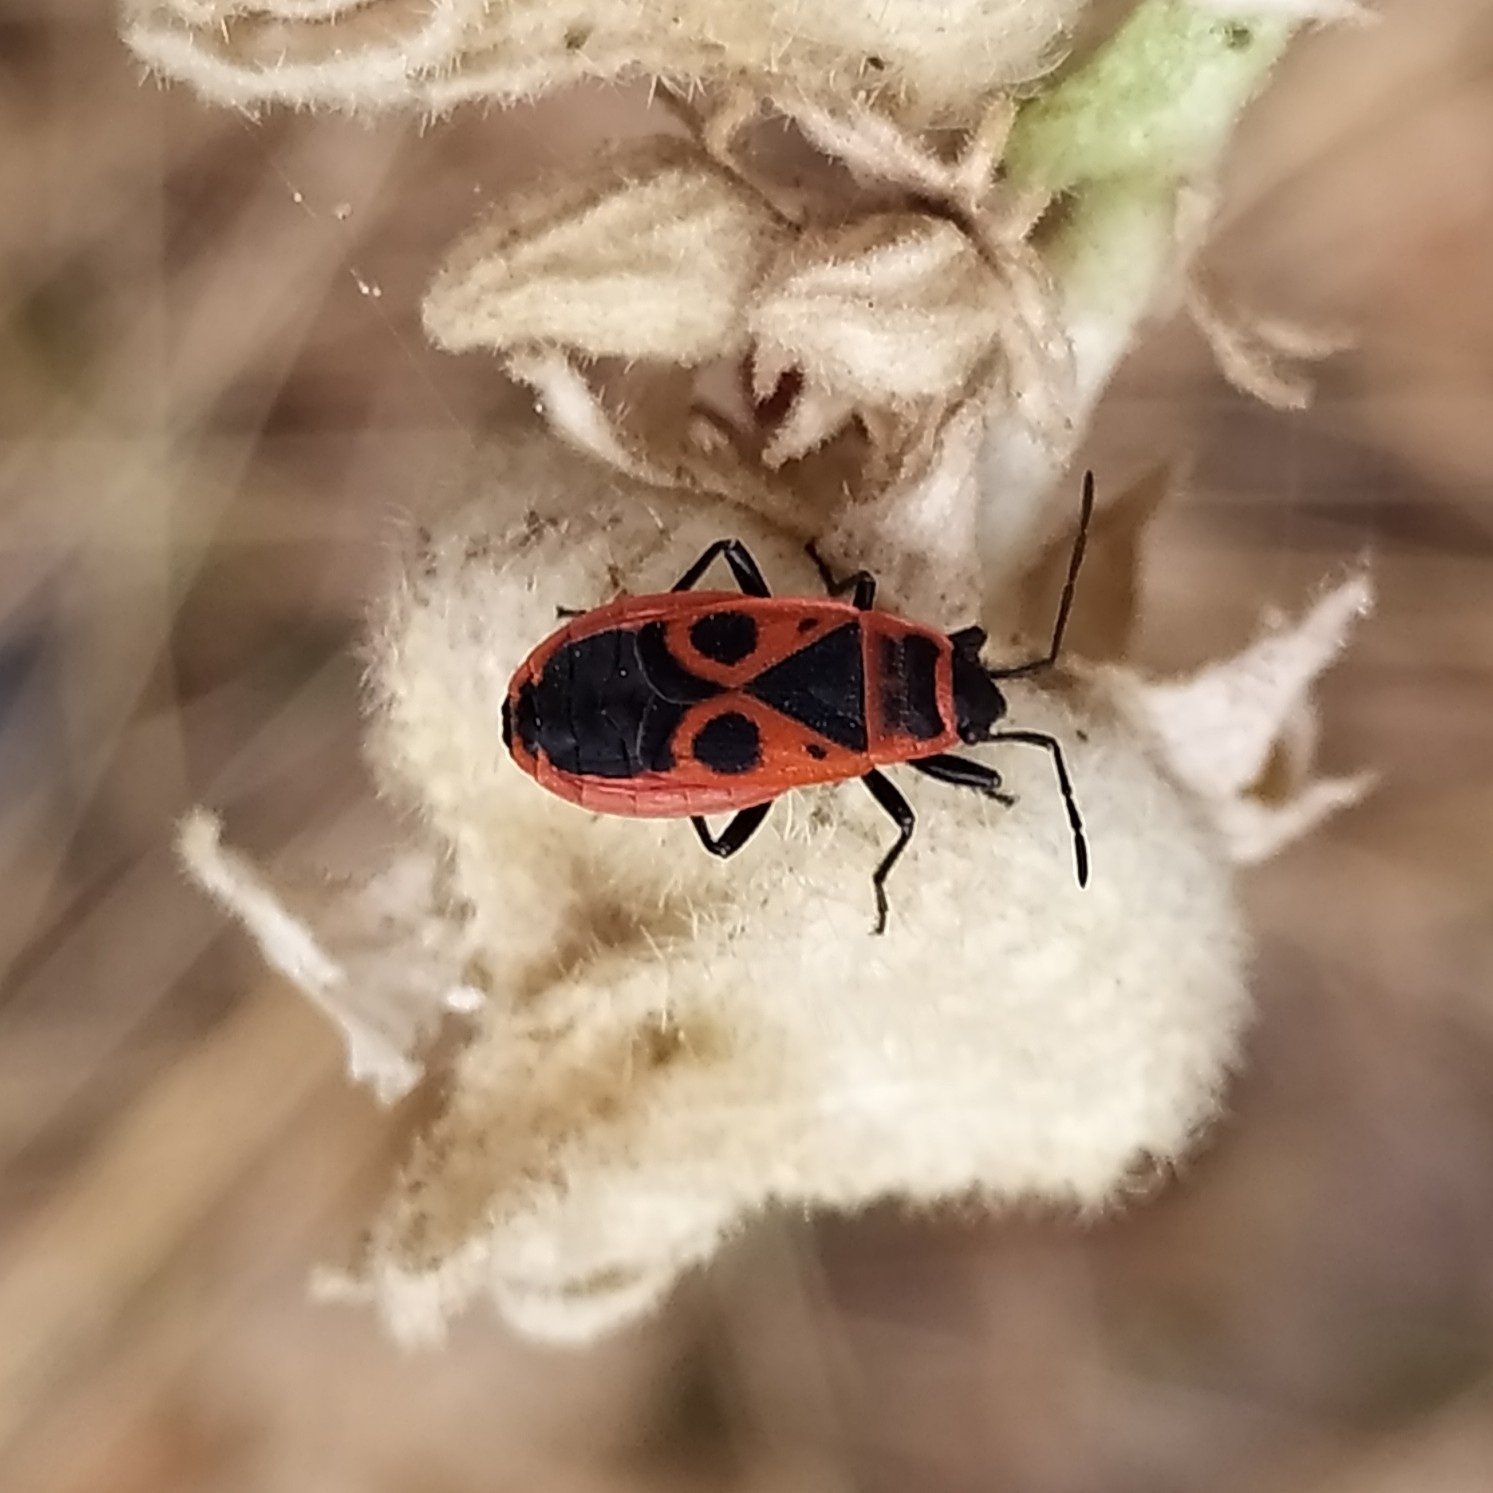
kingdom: Animalia
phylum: Arthropoda
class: Insecta
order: Hemiptera
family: Pyrrhocoridae
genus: Pyrrhocoris
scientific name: Pyrrhocoris apterus
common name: Firebug
